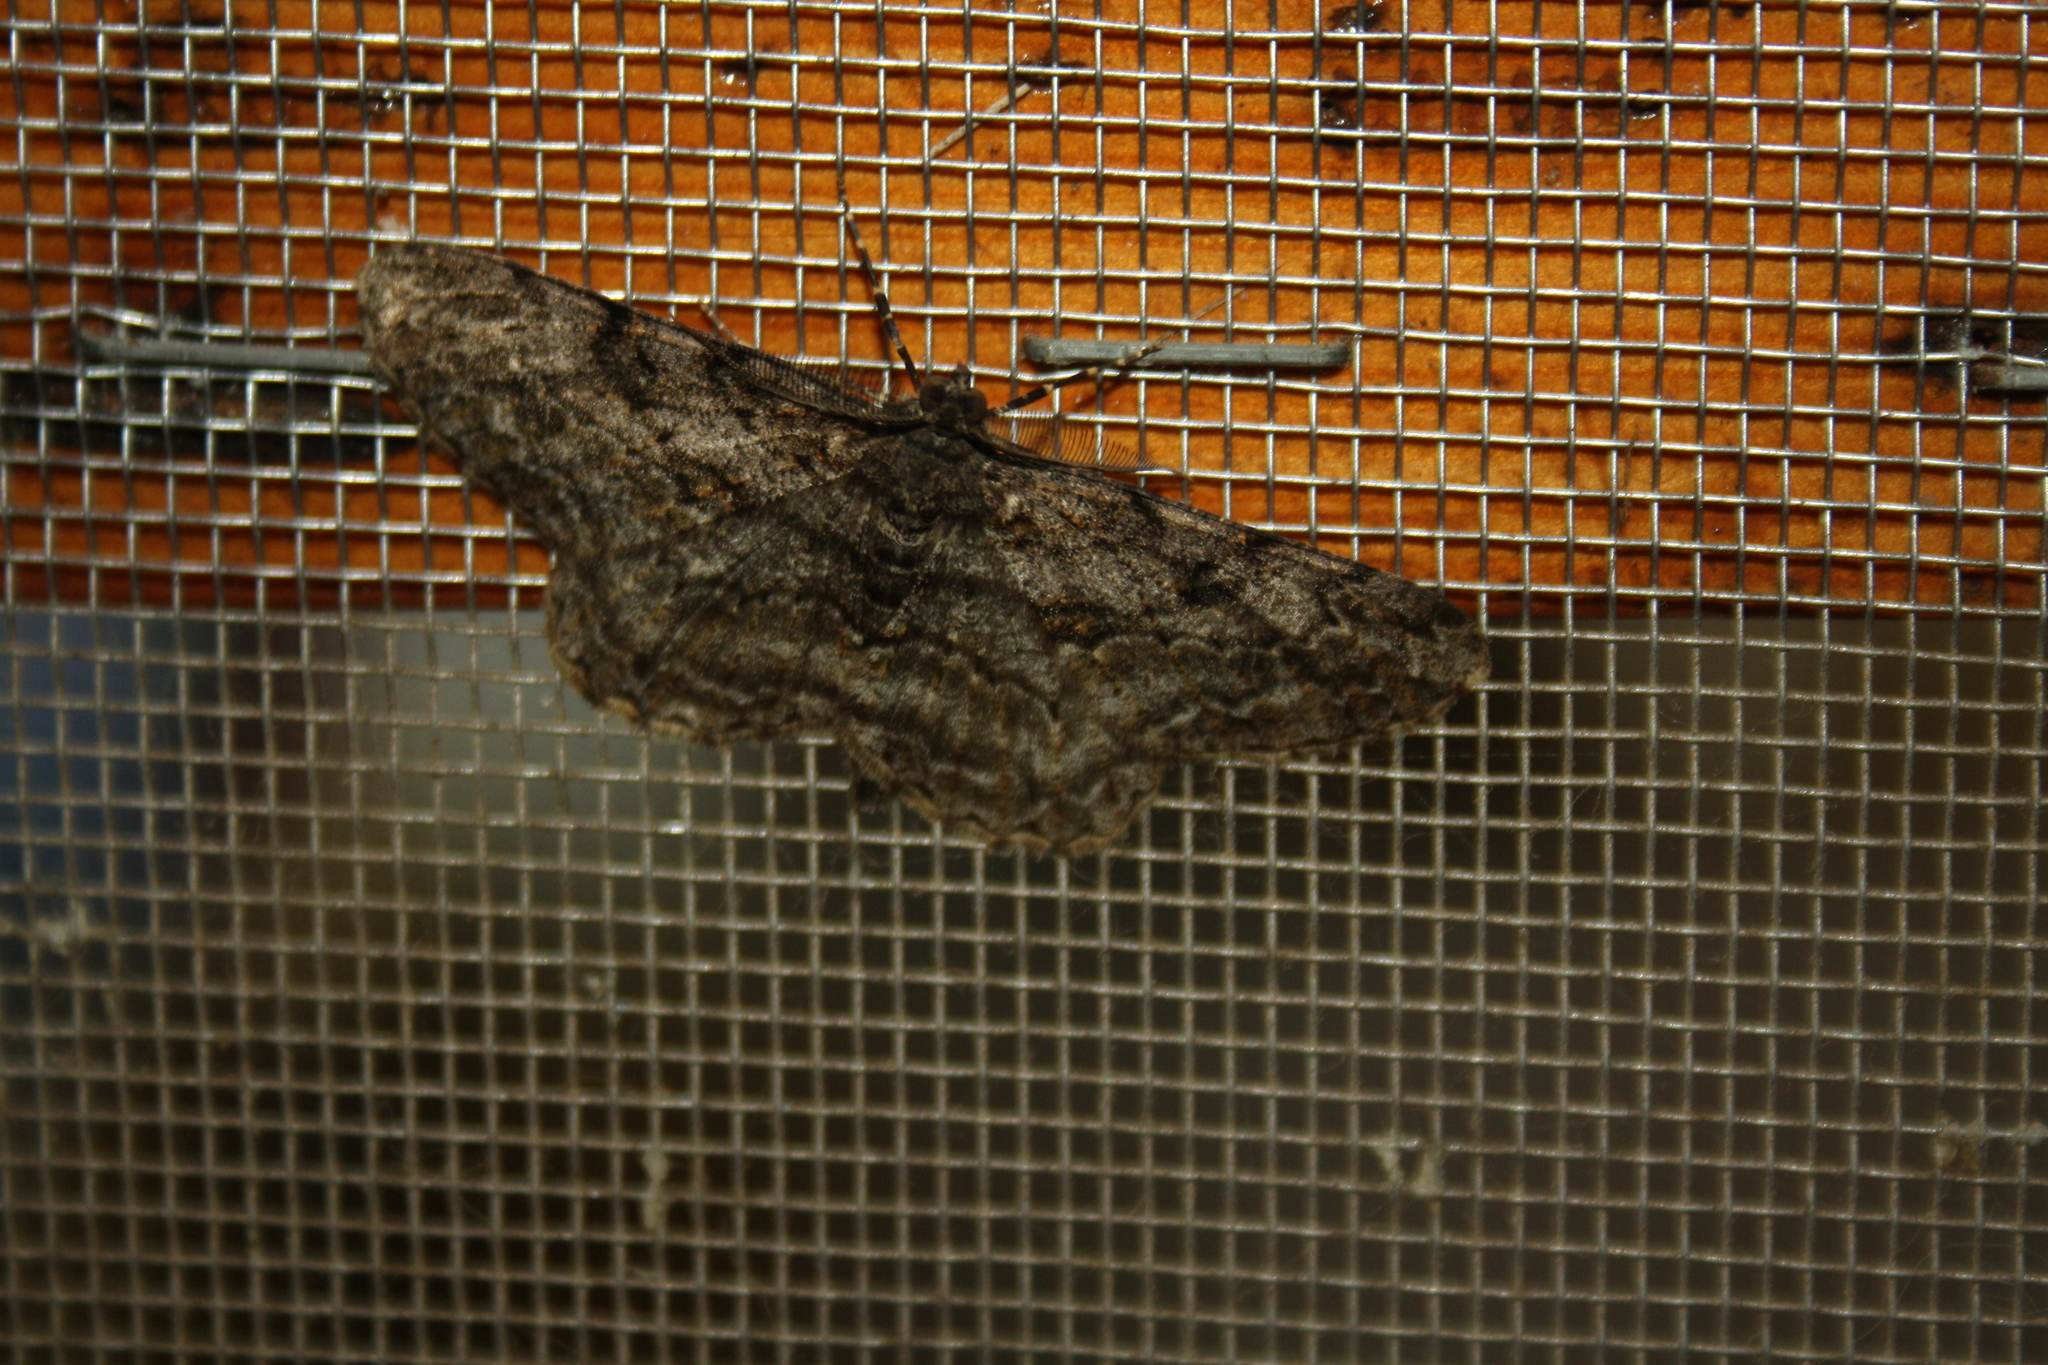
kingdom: Animalia
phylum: Arthropoda
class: Insecta
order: Lepidoptera
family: Geometridae
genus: Peribatodes
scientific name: Peribatodes rhomboidaria
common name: Willow beauty
